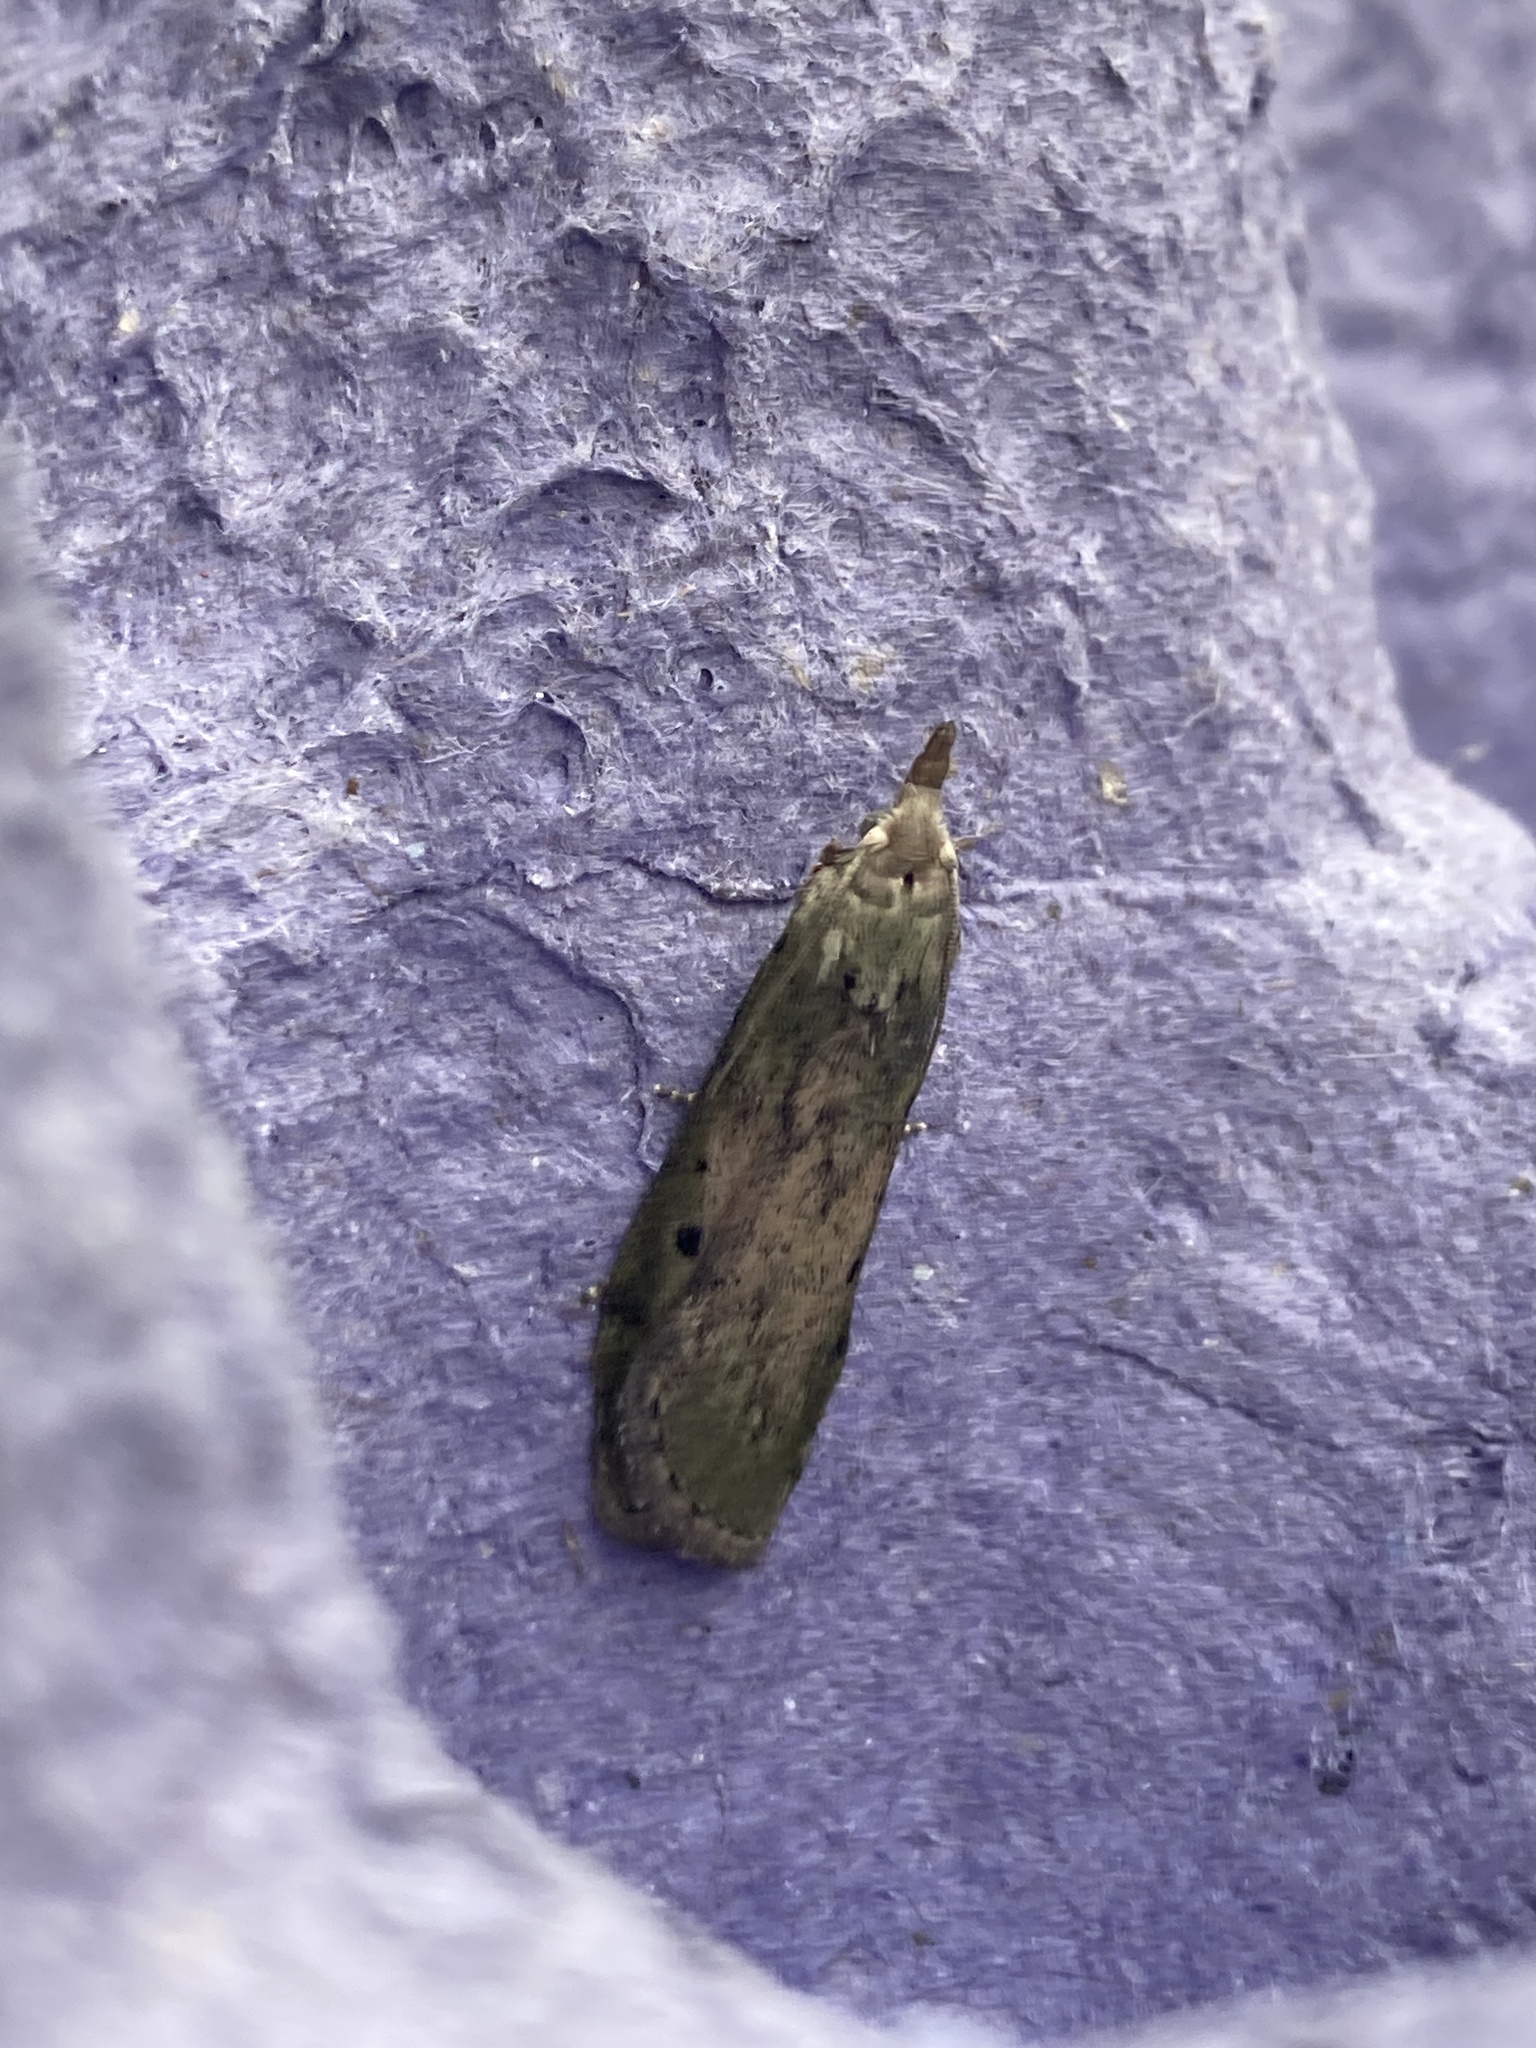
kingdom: Animalia
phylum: Arthropoda
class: Insecta
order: Lepidoptera
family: Pyralidae
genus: Aphomia
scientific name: Aphomia sociella
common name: Bee moth
